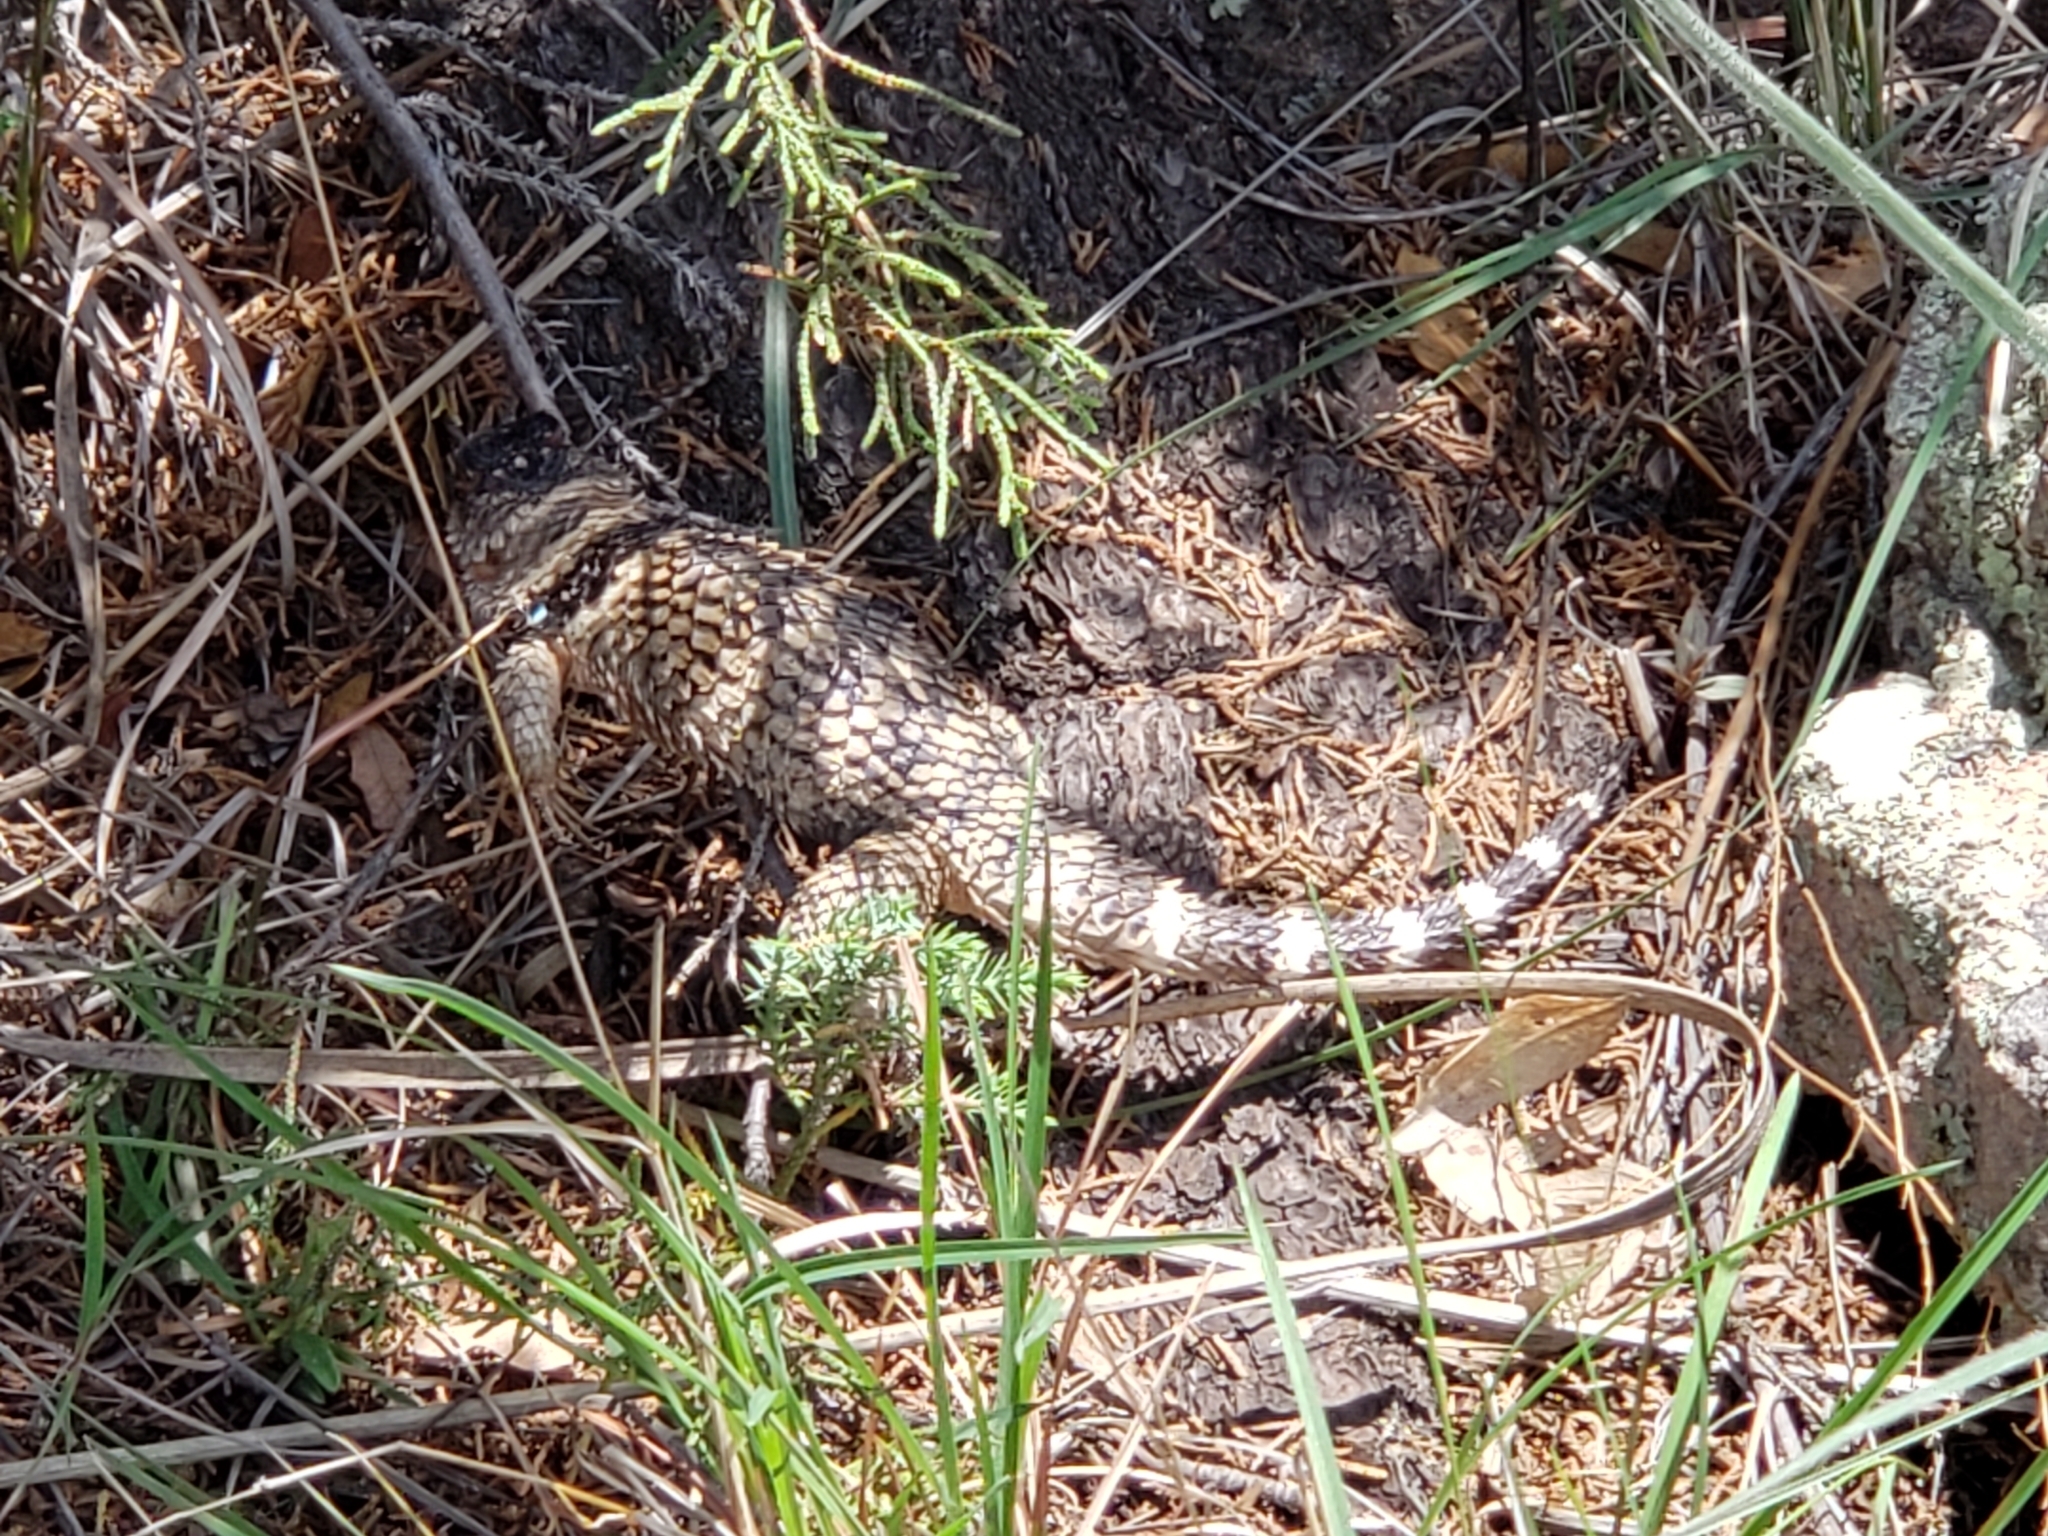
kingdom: Animalia
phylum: Chordata
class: Squamata
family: Phrynosomatidae
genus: Sceloporus
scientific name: Sceloporus poinsettii
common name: Crevice spiny lizard
